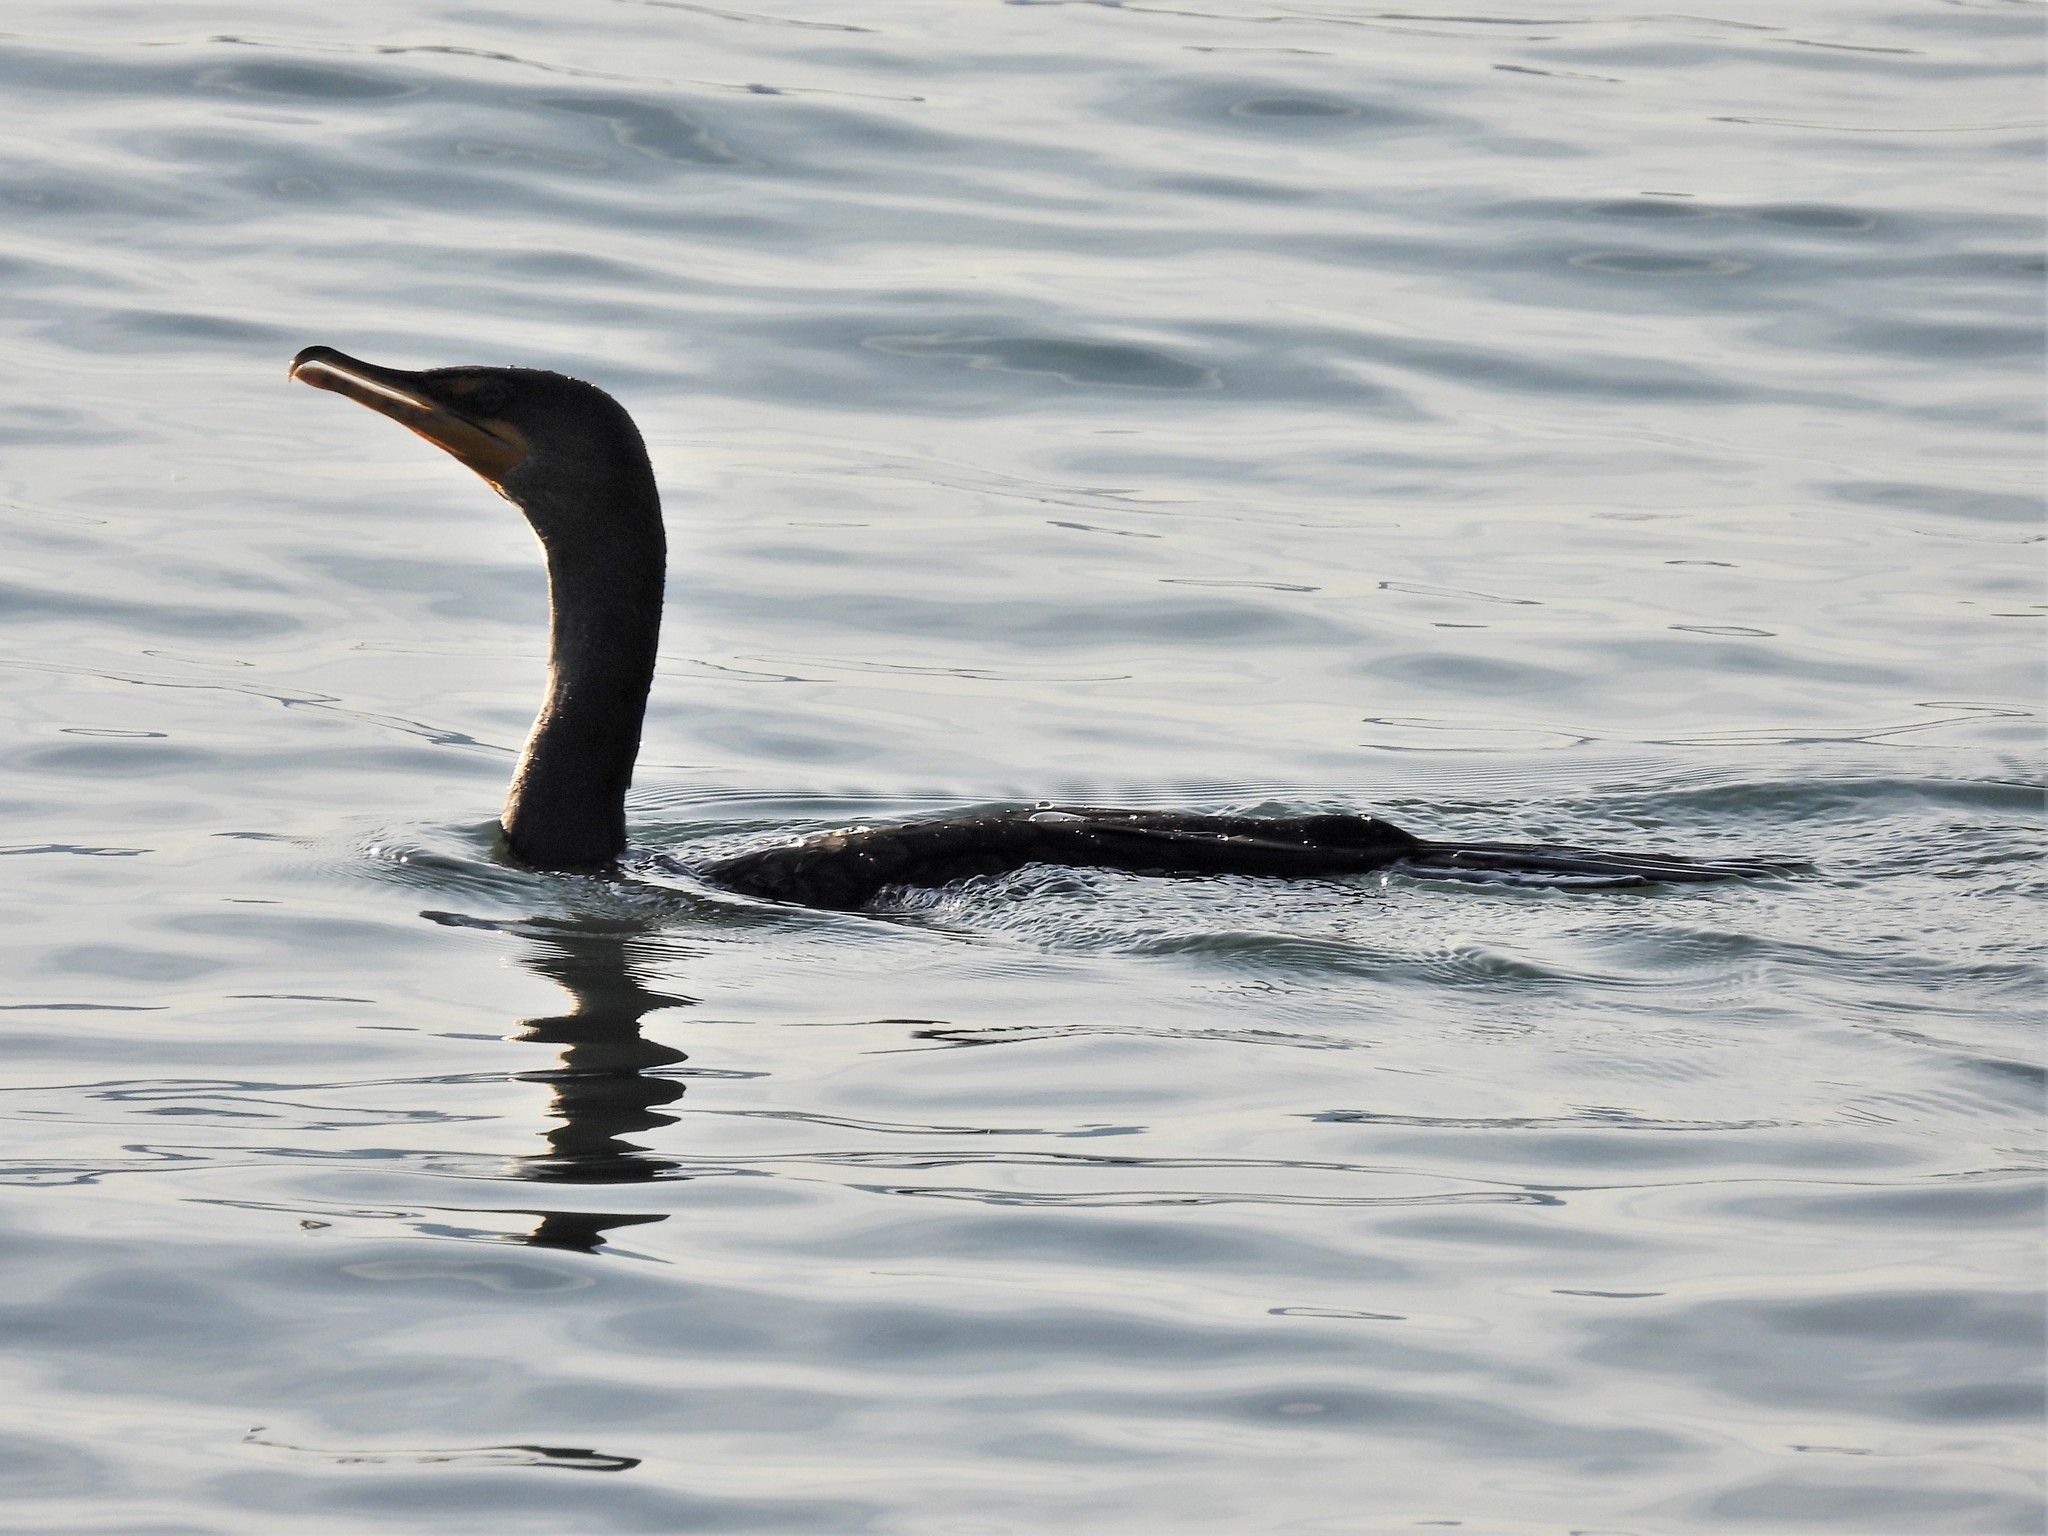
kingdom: Animalia
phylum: Chordata
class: Aves
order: Suliformes
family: Phalacrocoracidae
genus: Phalacrocorax
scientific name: Phalacrocorax auritus
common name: Double-crested cormorant
